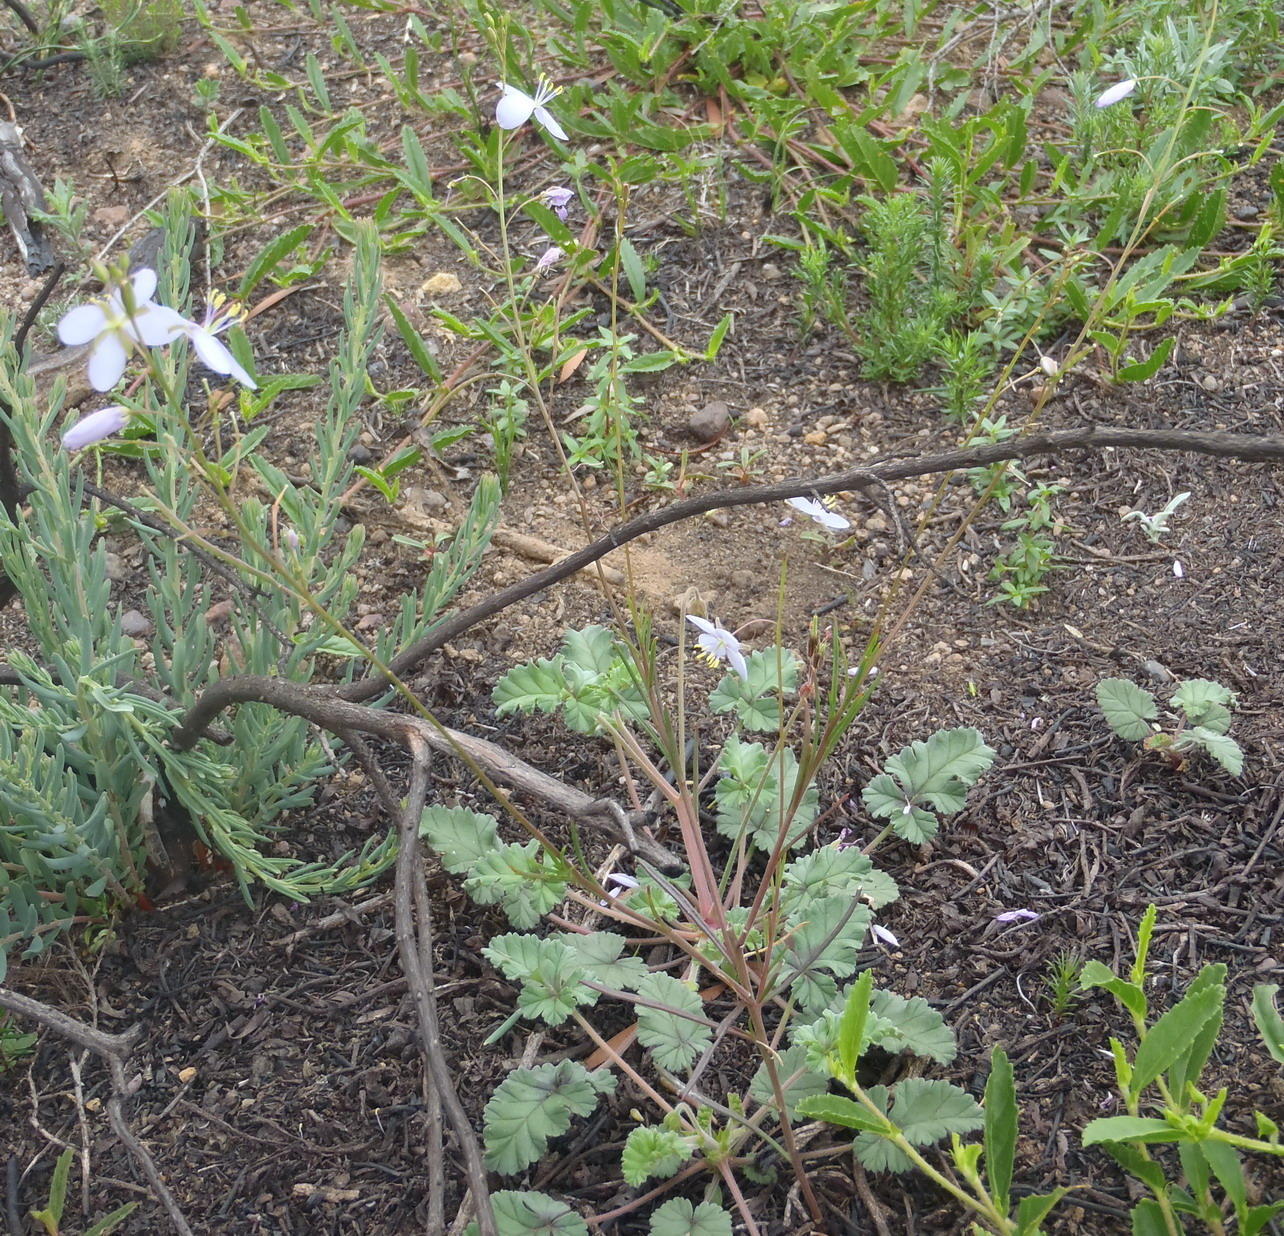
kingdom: Plantae
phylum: Tracheophyta
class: Magnoliopsida
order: Brassicales
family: Brassicaceae
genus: Heliophila
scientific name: Heliophila subulata
